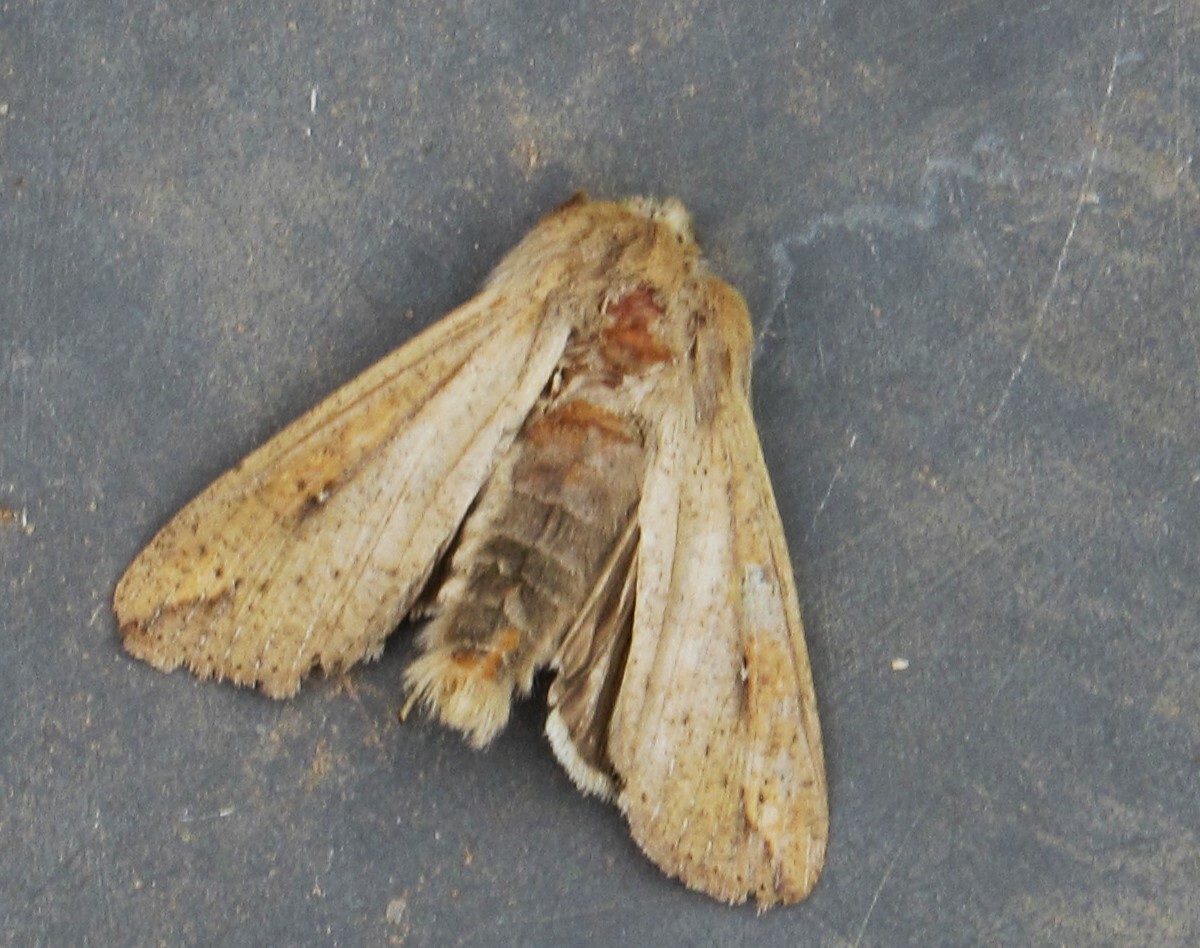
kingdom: Animalia
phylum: Arthropoda
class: Insecta
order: Lepidoptera
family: Noctuidae
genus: Mythimna
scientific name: Mythimna unipuncta
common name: White-speck
